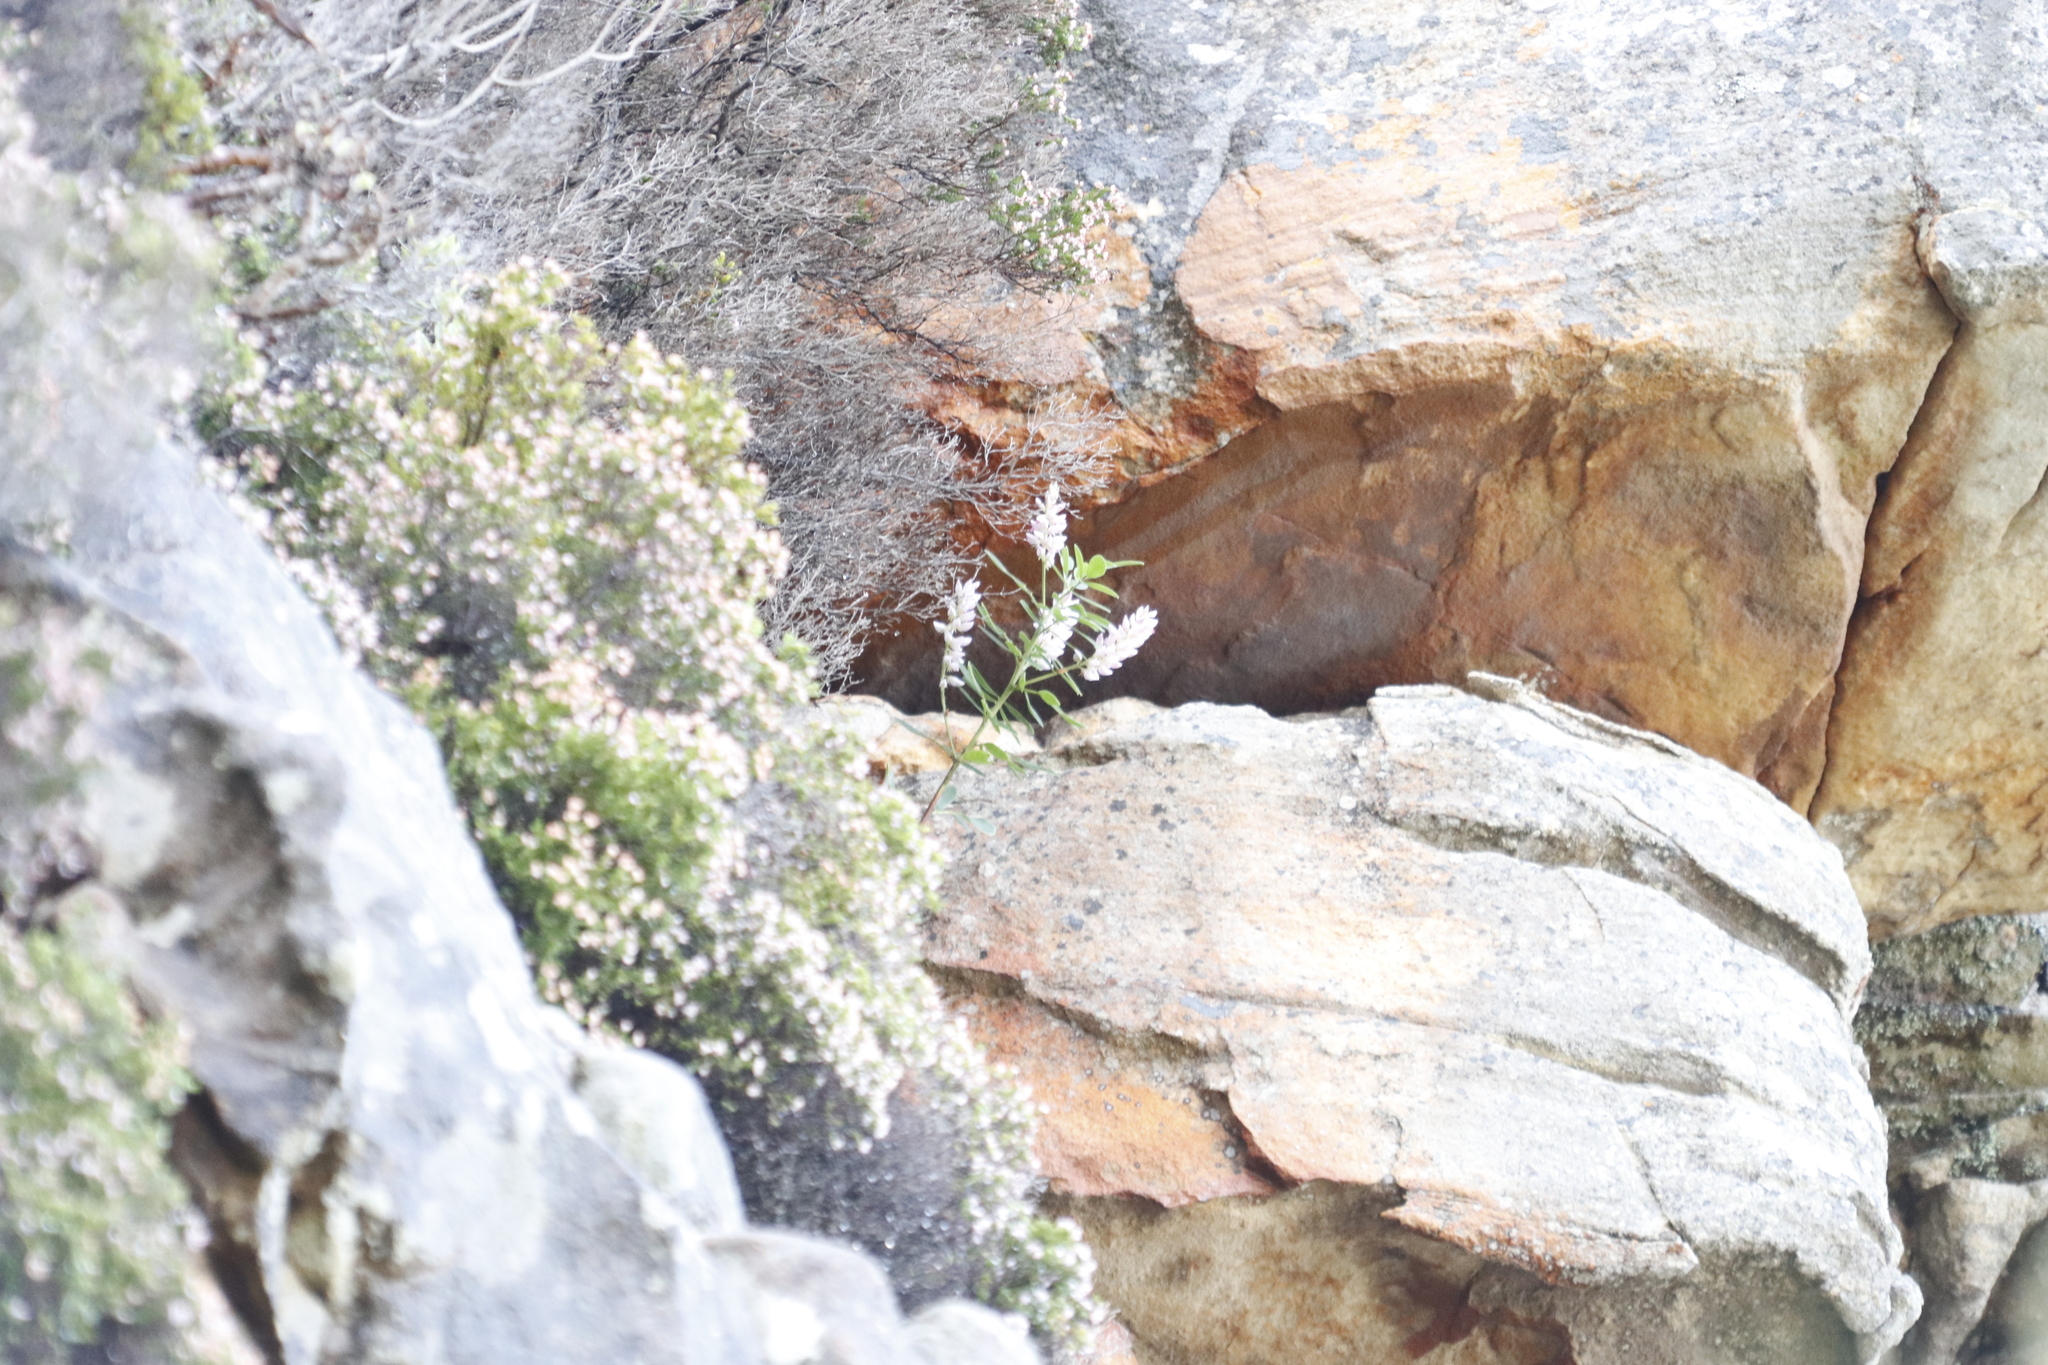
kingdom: Plantae
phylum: Tracheophyta
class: Magnoliopsida
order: Fabales
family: Fabaceae
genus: Indigofera
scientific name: Indigofera cytisoides
